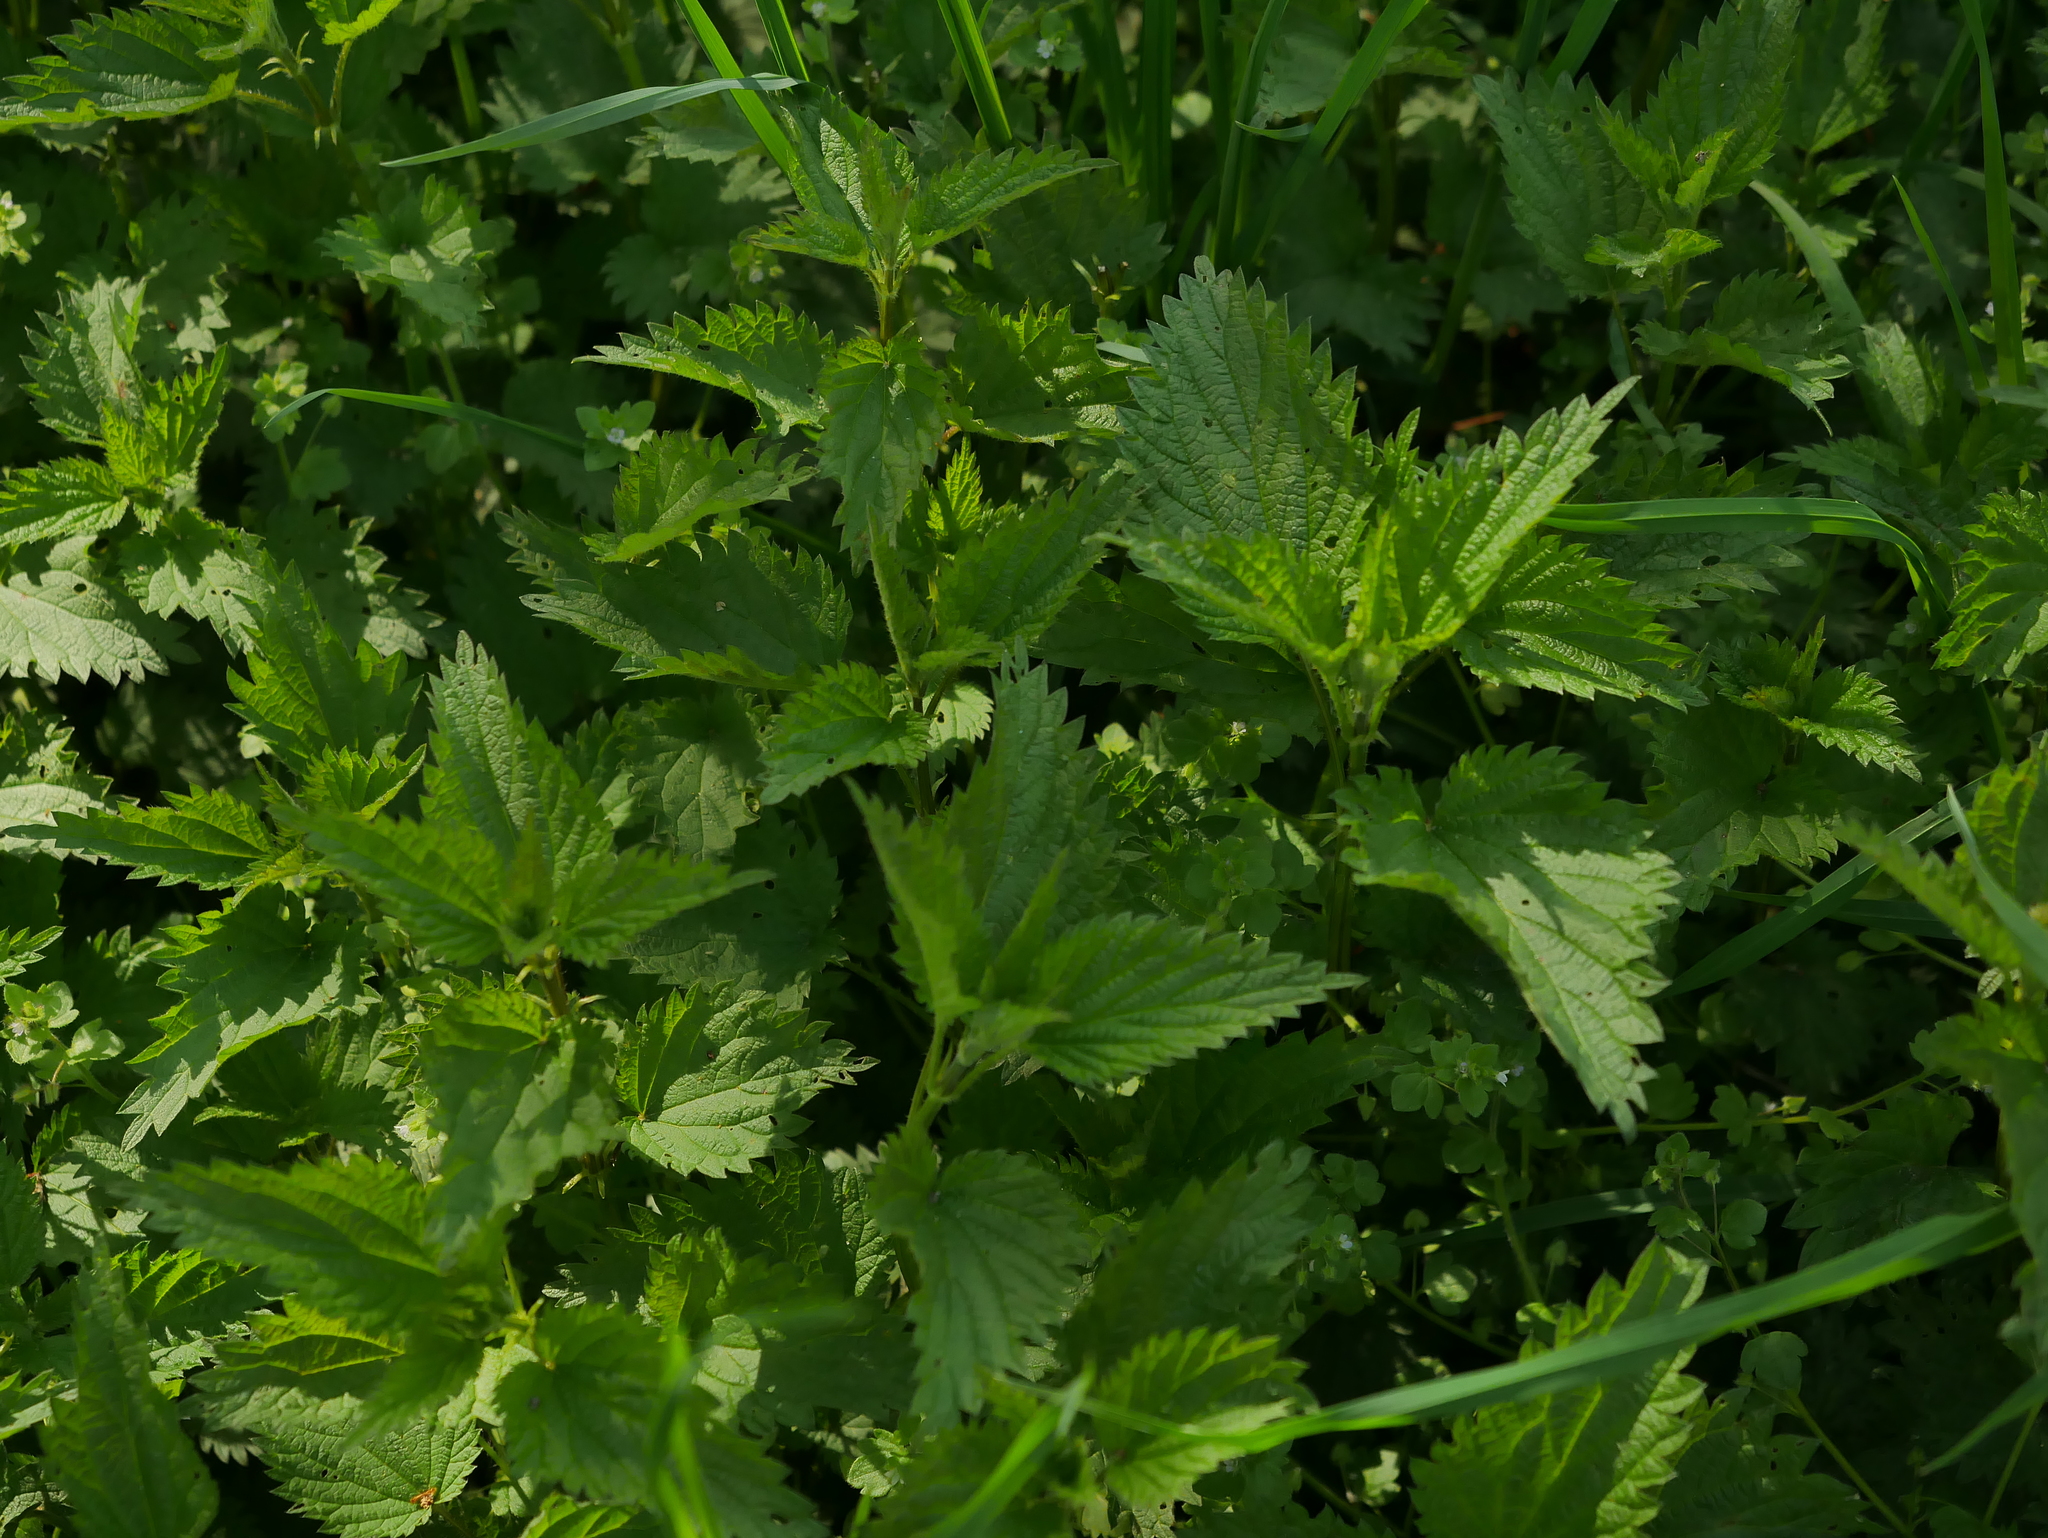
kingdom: Plantae
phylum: Tracheophyta
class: Magnoliopsida
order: Rosales
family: Urticaceae
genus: Urtica
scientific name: Urtica dioica
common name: Common nettle
